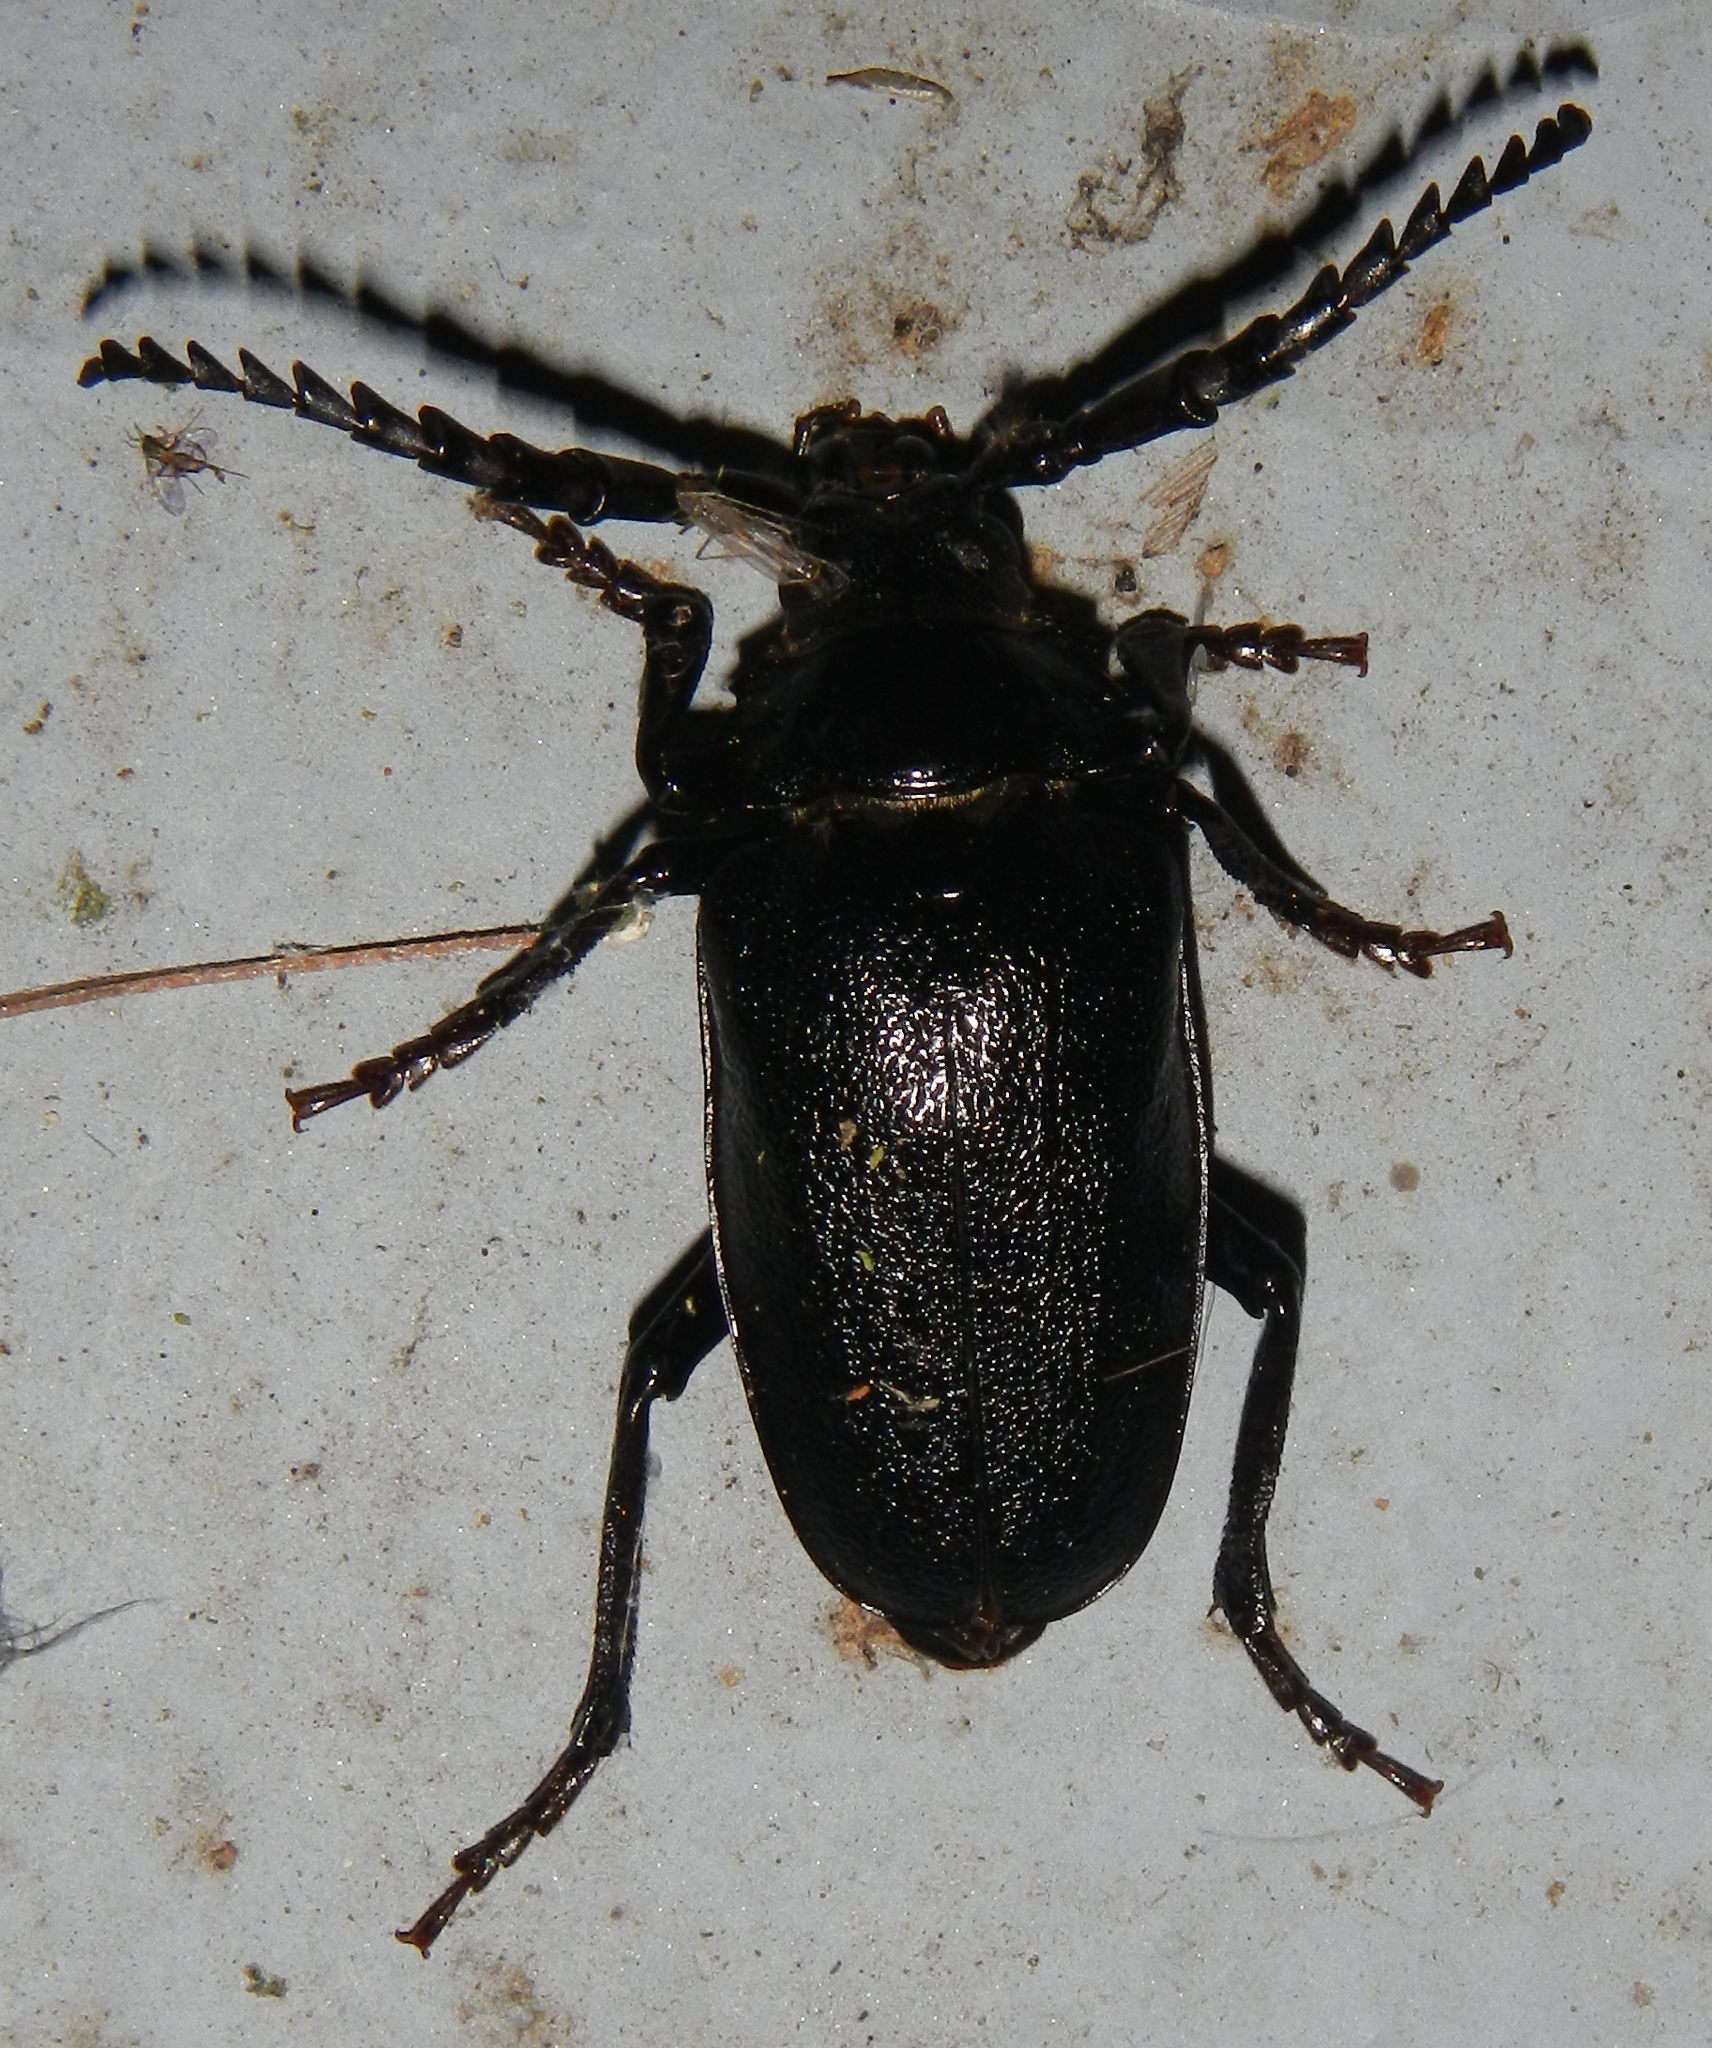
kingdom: Animalia
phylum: Arthropoda
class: Insecta
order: Coleoptera
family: Cerambycidae
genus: Prionus
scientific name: Prionus laticollis
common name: Broad necked prionus
